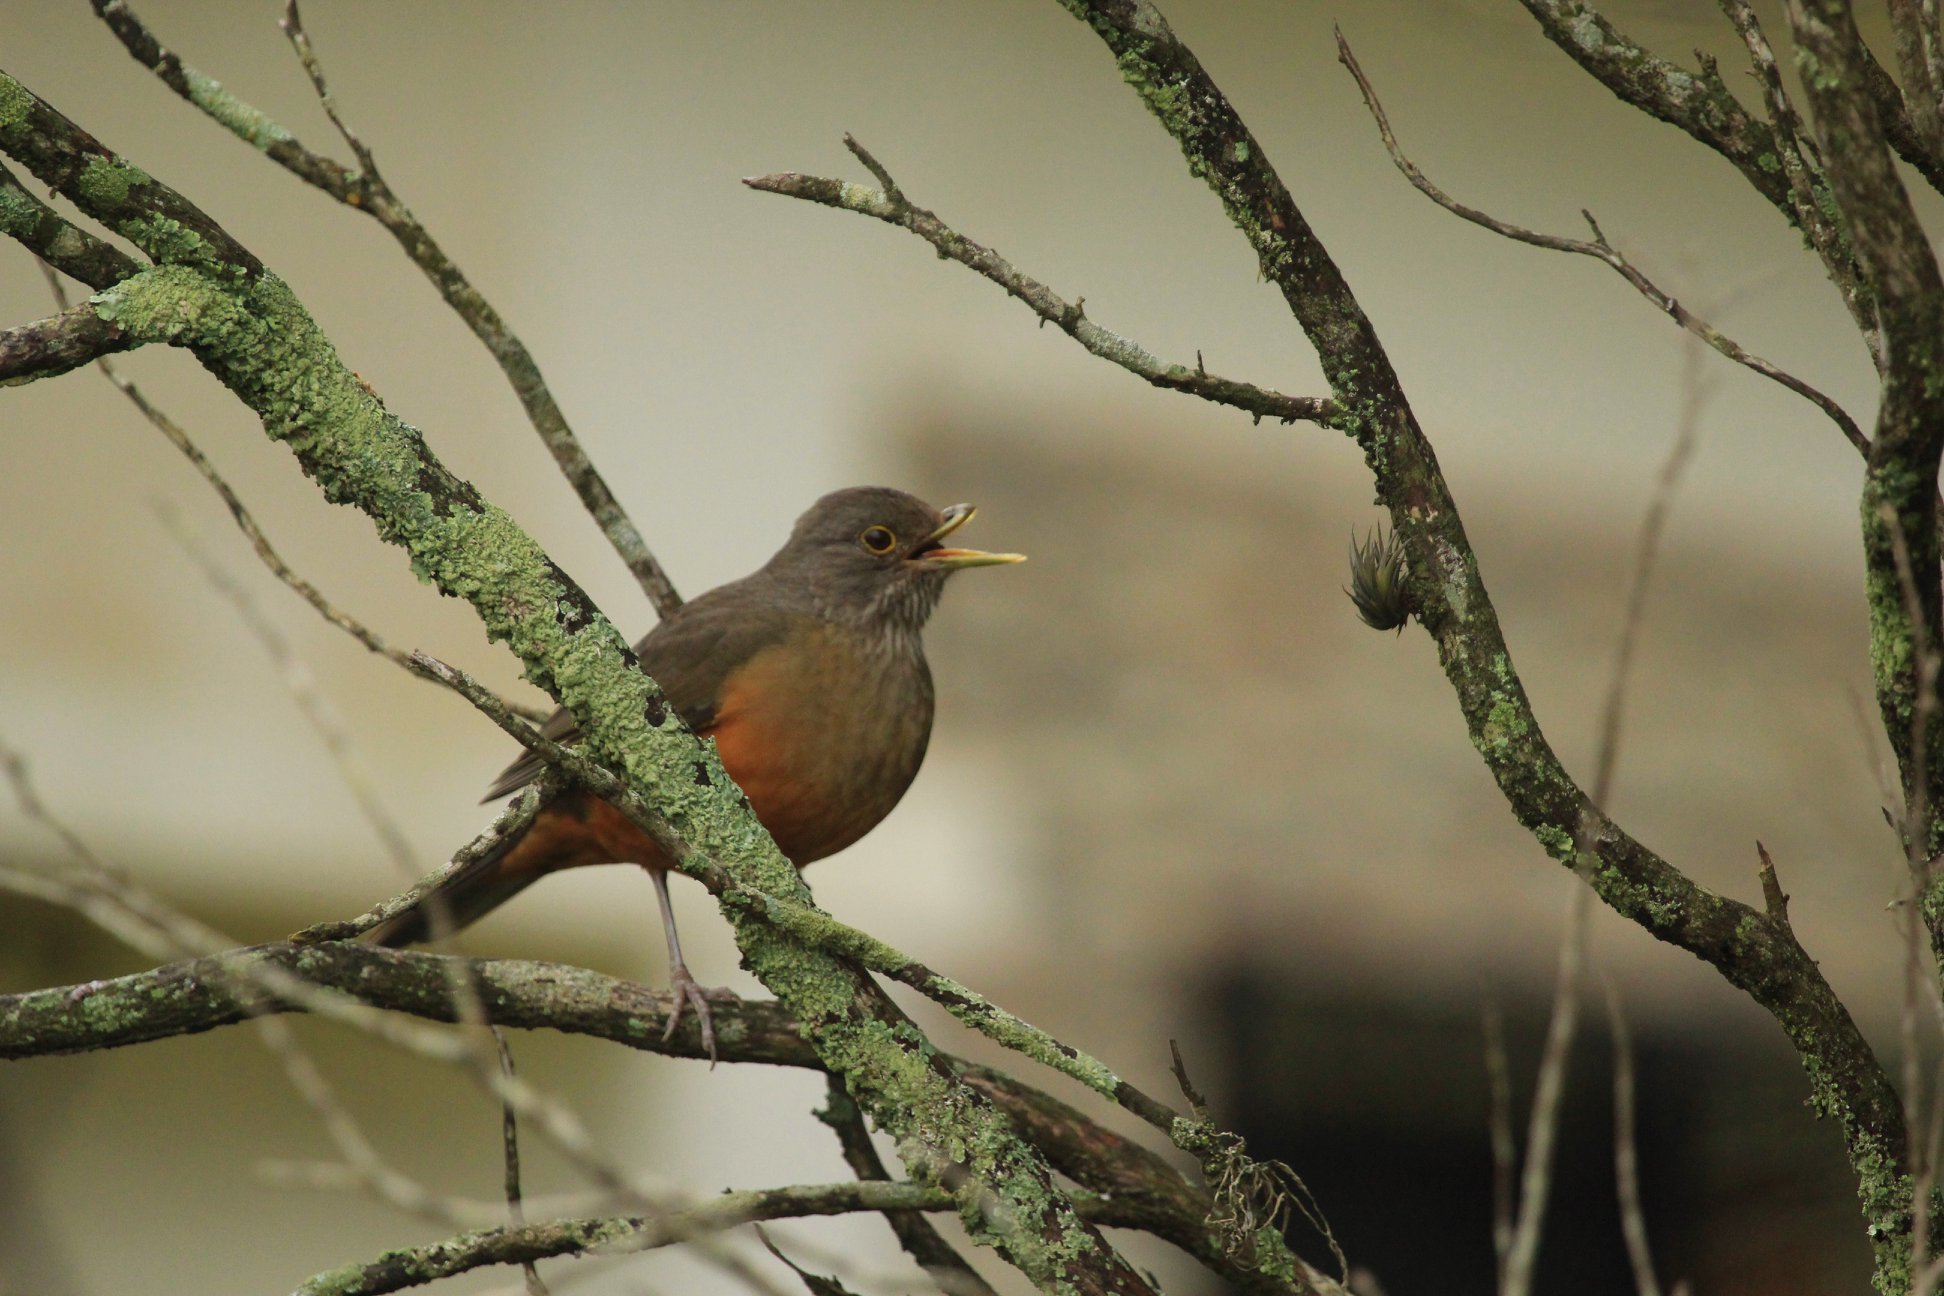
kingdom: Animalia
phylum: Chordata
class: Aves
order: Passeriformes
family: Turdidae
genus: Turdus
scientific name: Turdus rufiventris
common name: Rufous-bellied thrush
